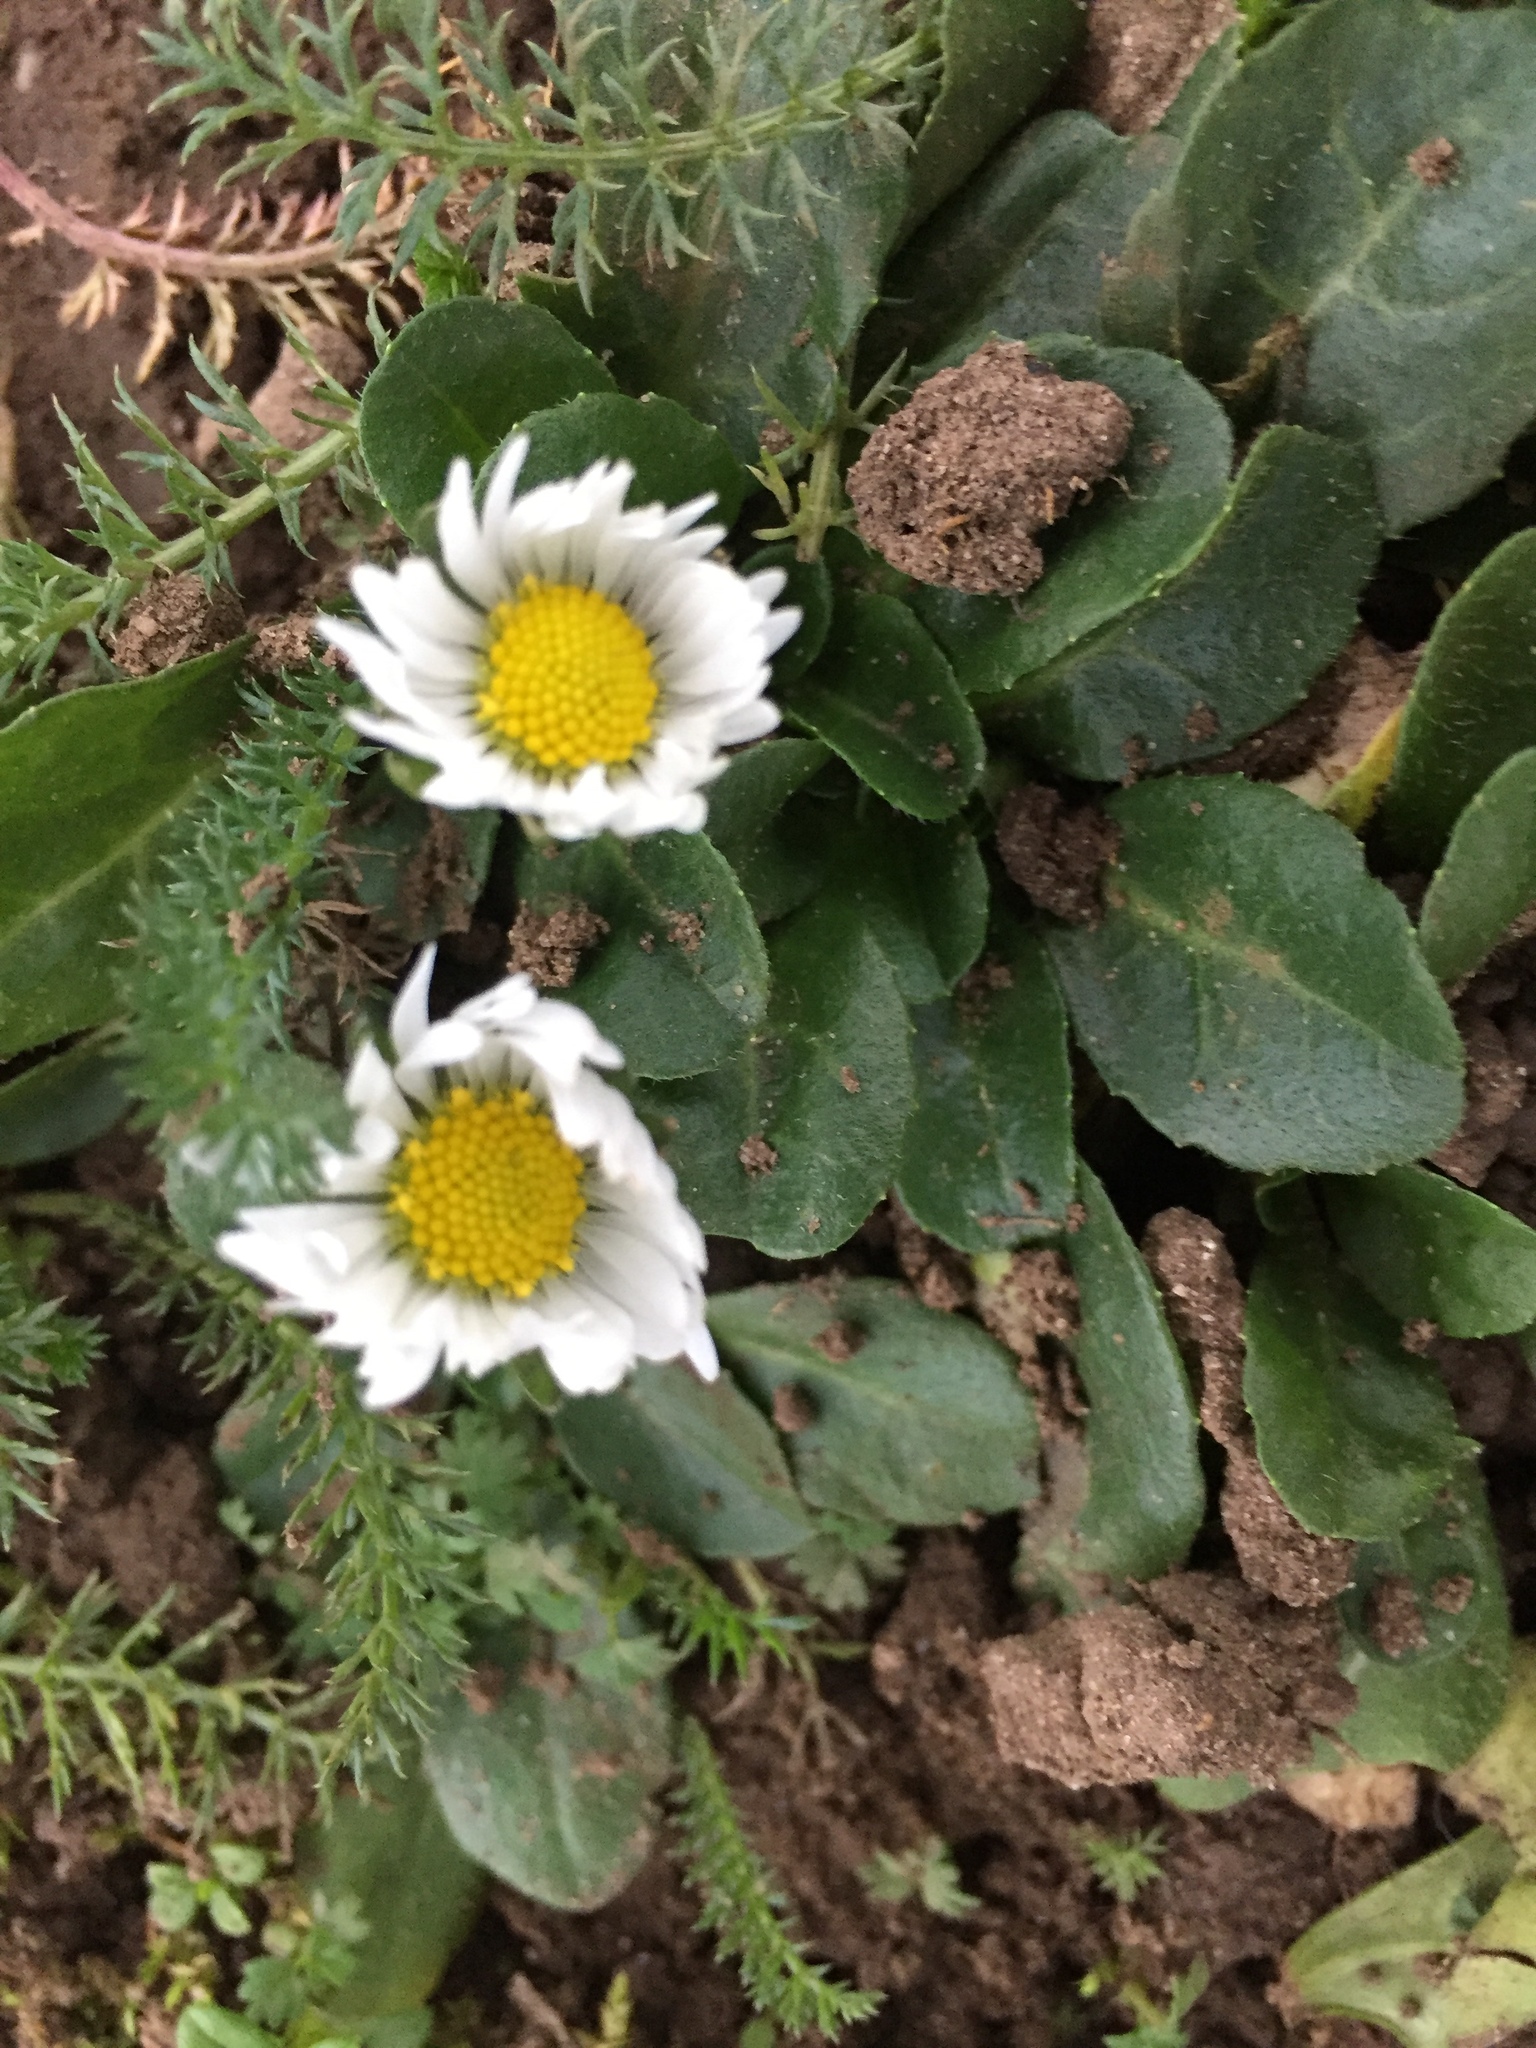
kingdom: Plantae
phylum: Tracheophyta
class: Magnoliopsida
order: Asterales
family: Asteraceae
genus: Bellis
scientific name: Bellis perennis
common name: Lawndaisy
